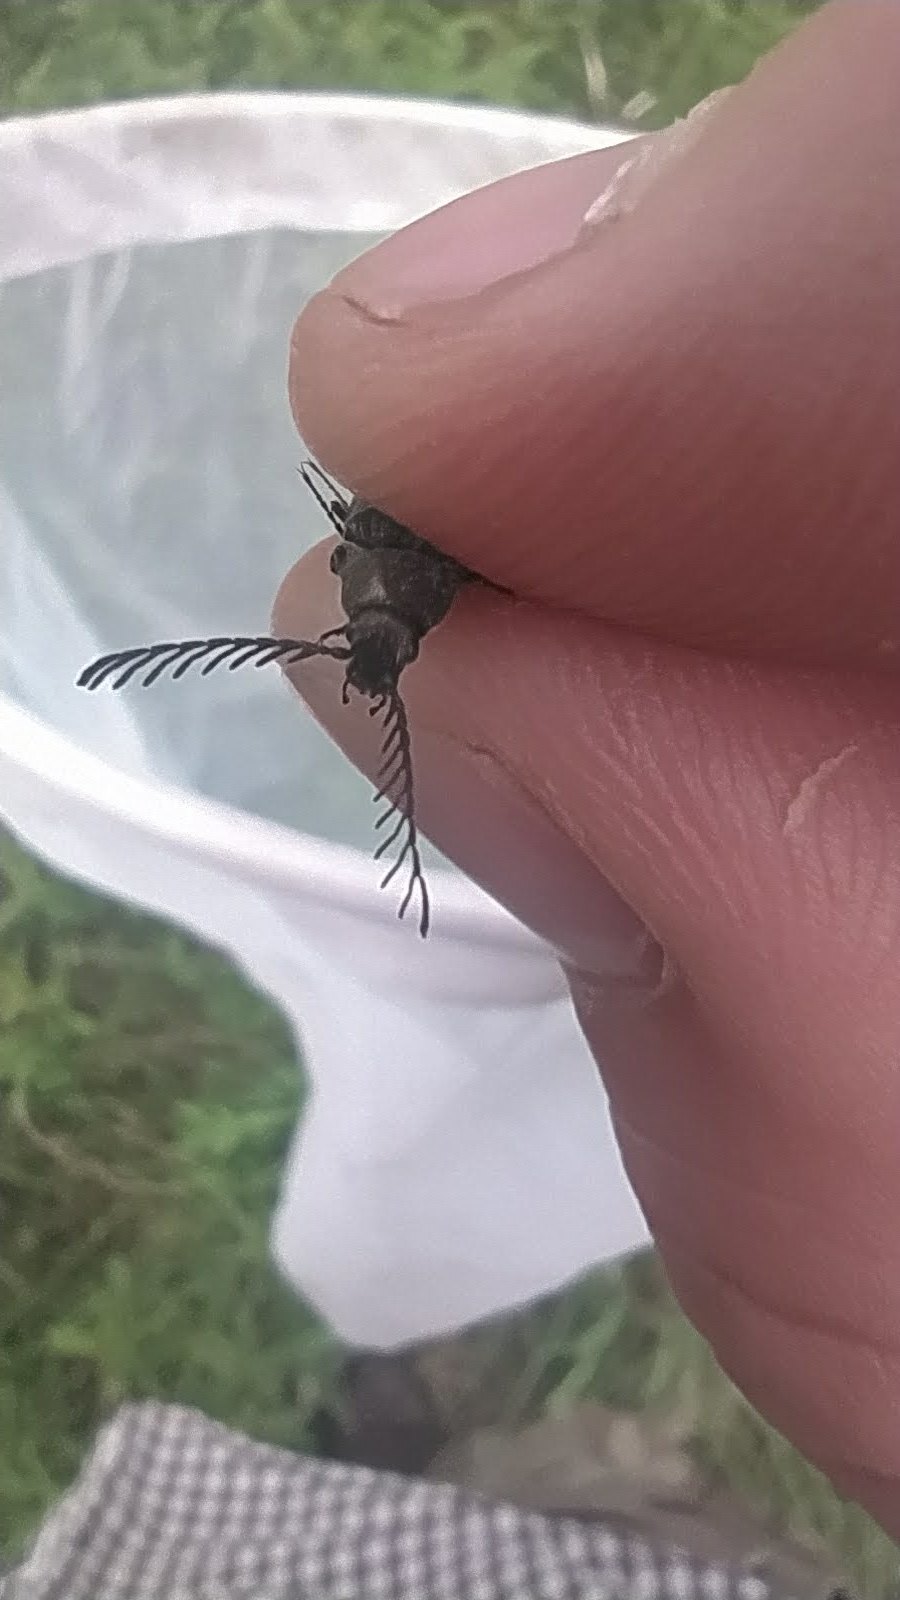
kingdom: Animalia
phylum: Arthropoda
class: Insecta
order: Coleoptera
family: Elateridae
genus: Ctenicera
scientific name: Ctenicera pectinicornis
